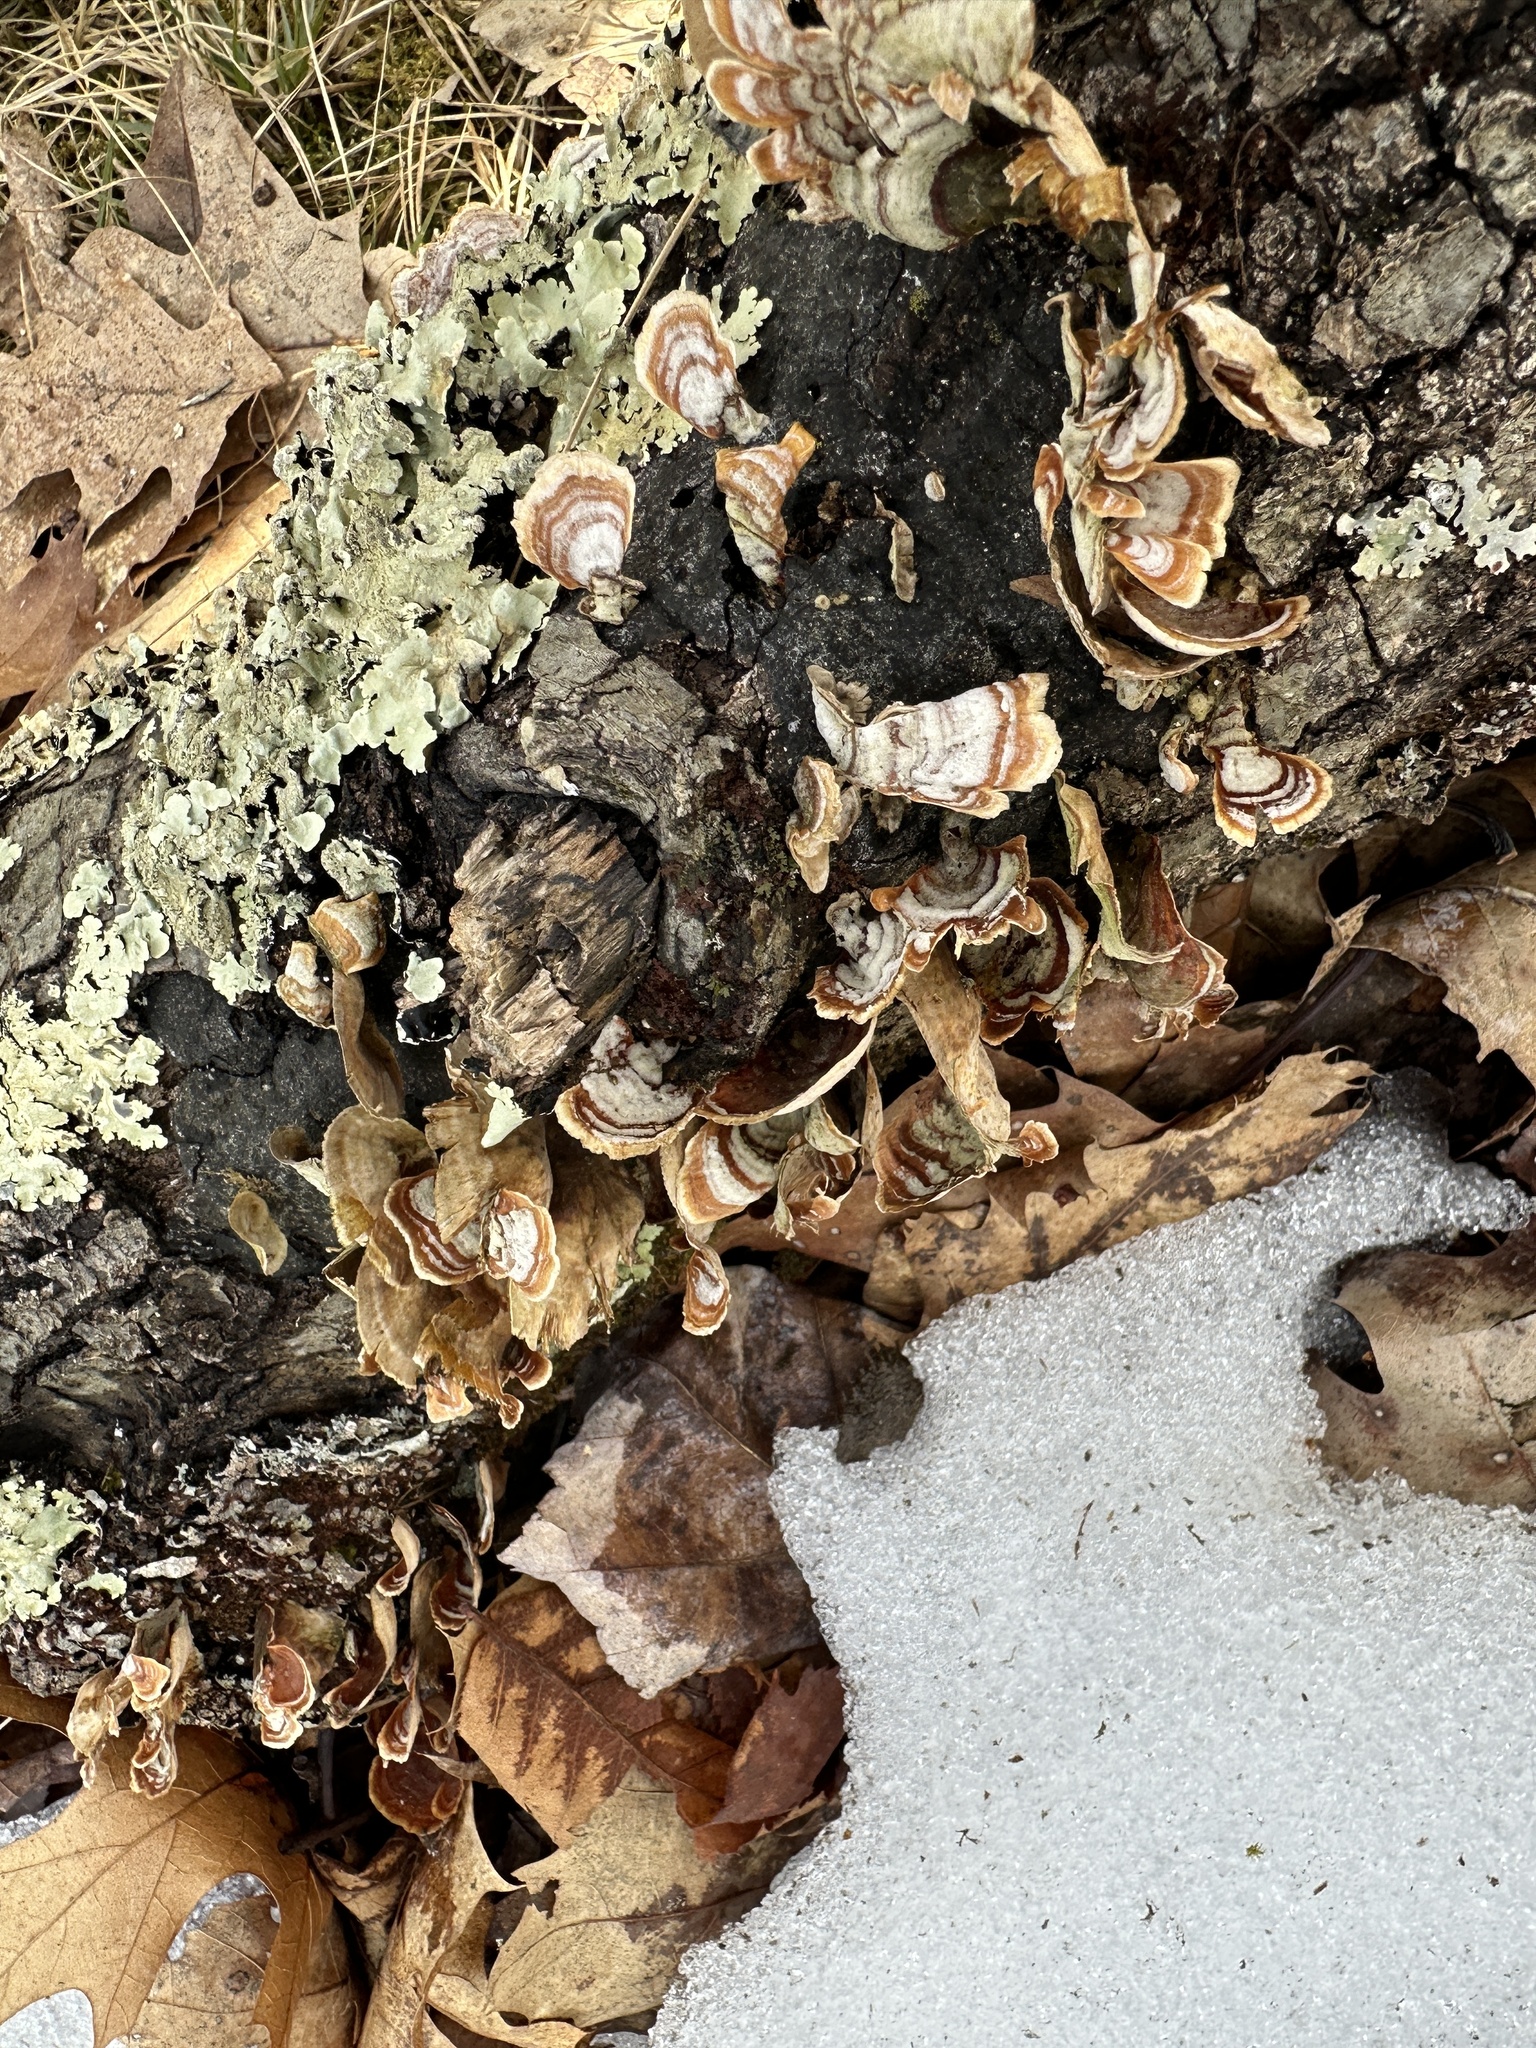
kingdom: Fungi
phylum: Basidiomycota
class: Agaricomycetes
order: Russulales
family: Stereaceae
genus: Stereum
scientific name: Stereum lobatum
